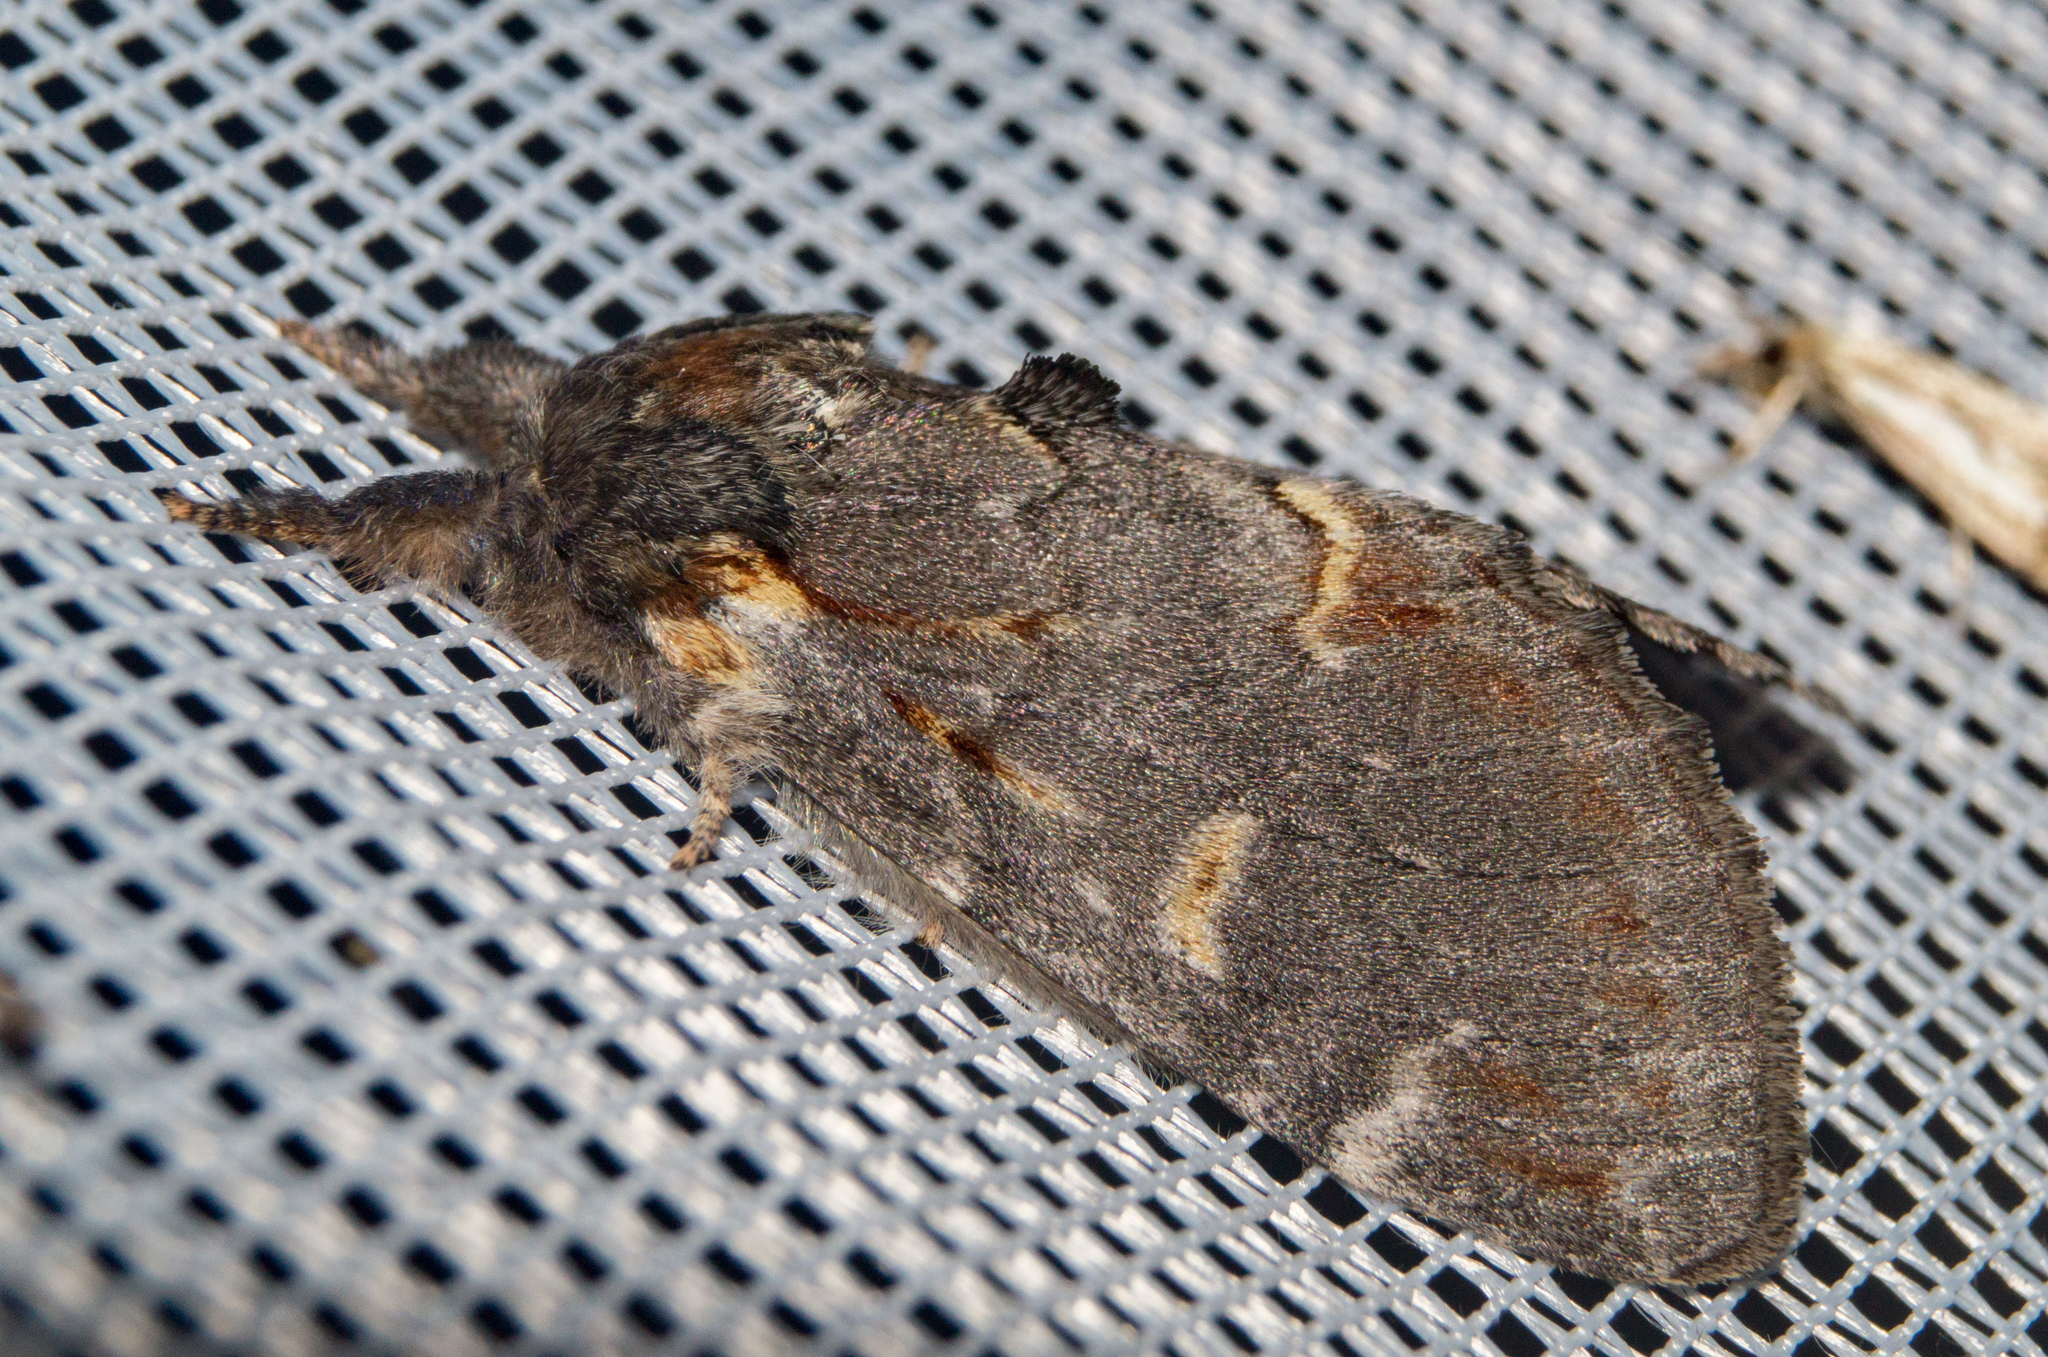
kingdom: Animalia
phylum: Arthropoda
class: Insecta
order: Lepidoptera
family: Notodontidae
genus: Notodonta
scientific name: Notodonta dromedarius
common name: Iron prominent
